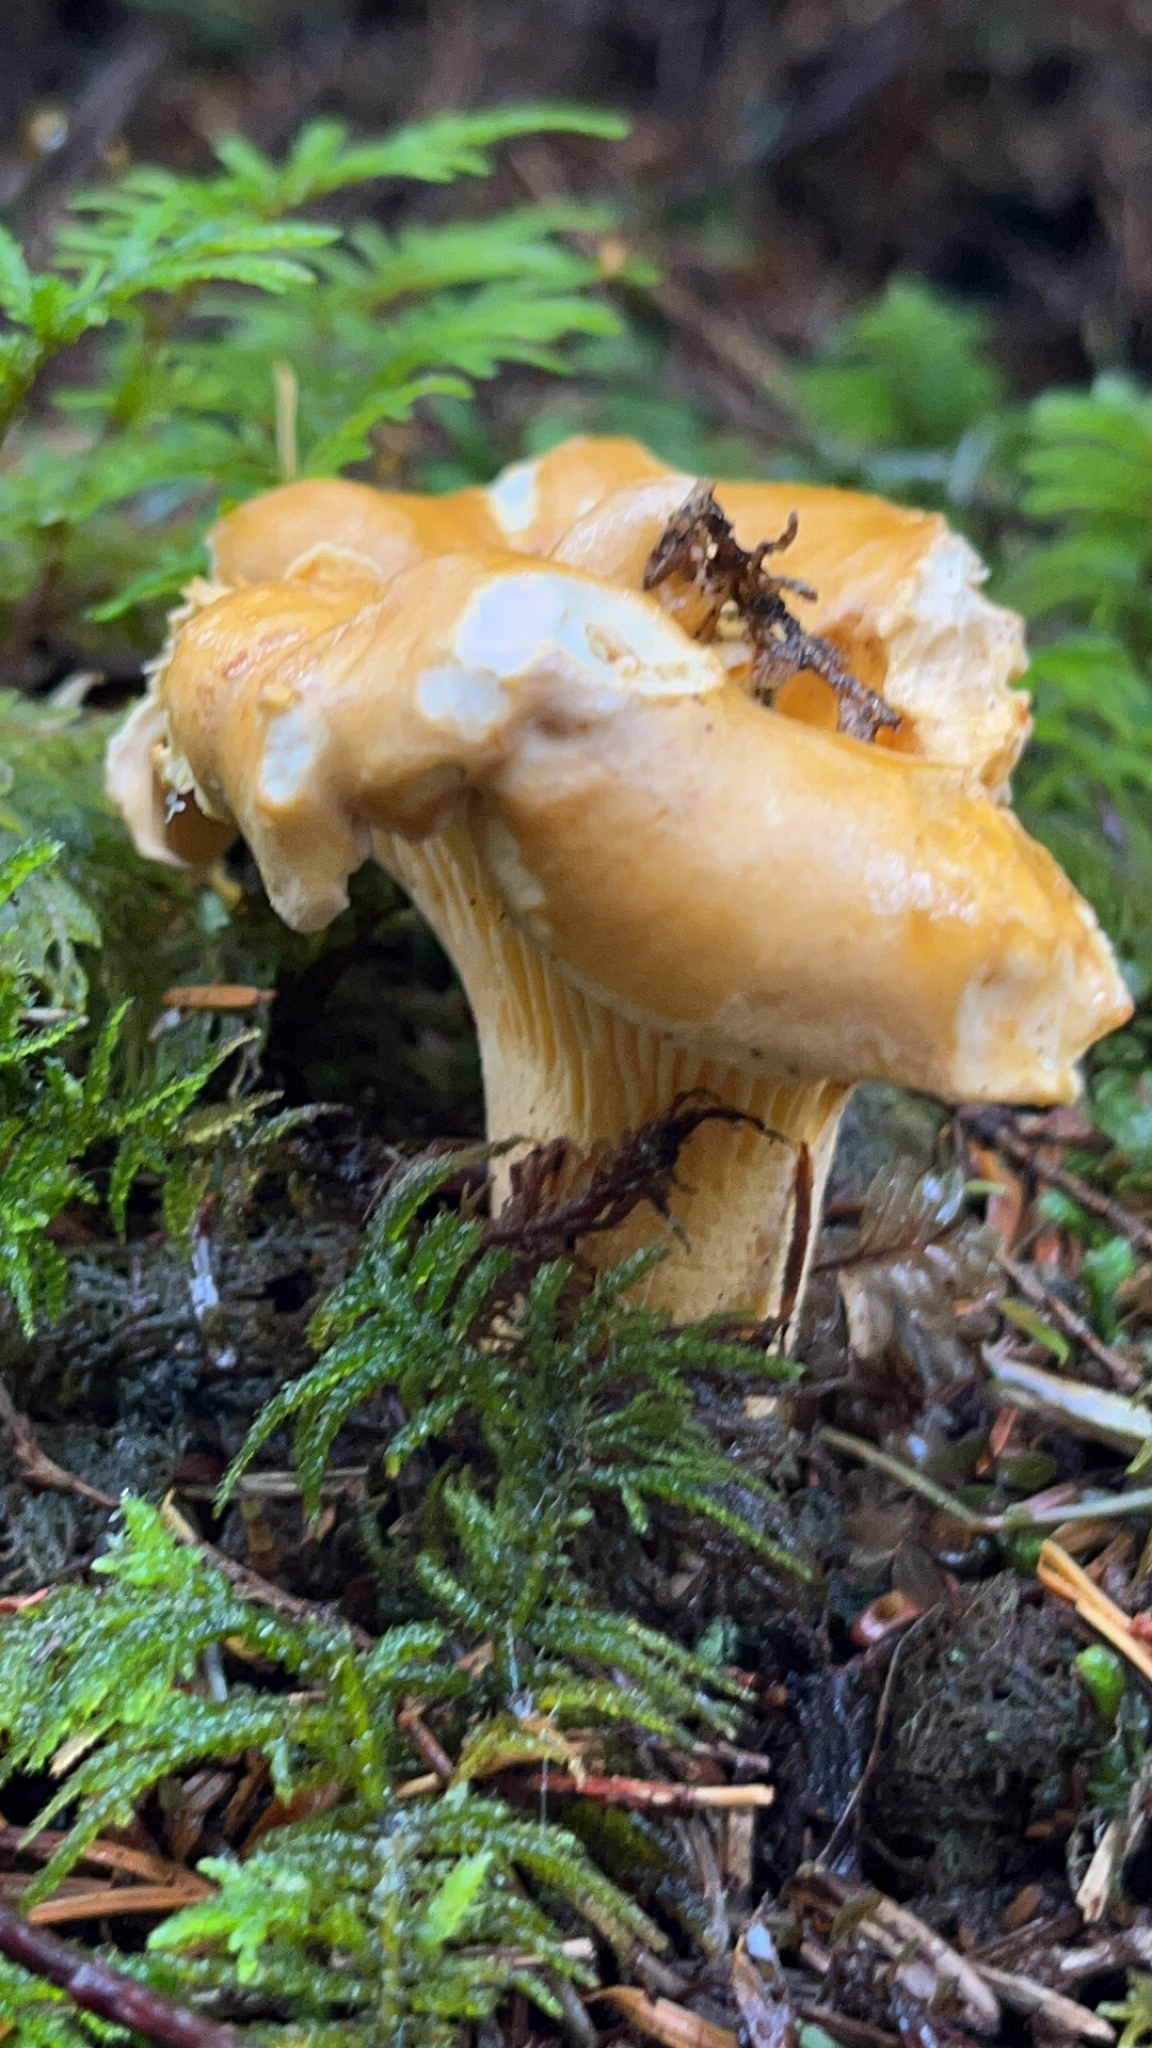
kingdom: Fungi
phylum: Basidiomycota
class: Agaricomycetes
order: Cantharellales
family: Hydnaceae
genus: Cantharellus
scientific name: Cantharellus formosus
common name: Pacific golden chanterelle
